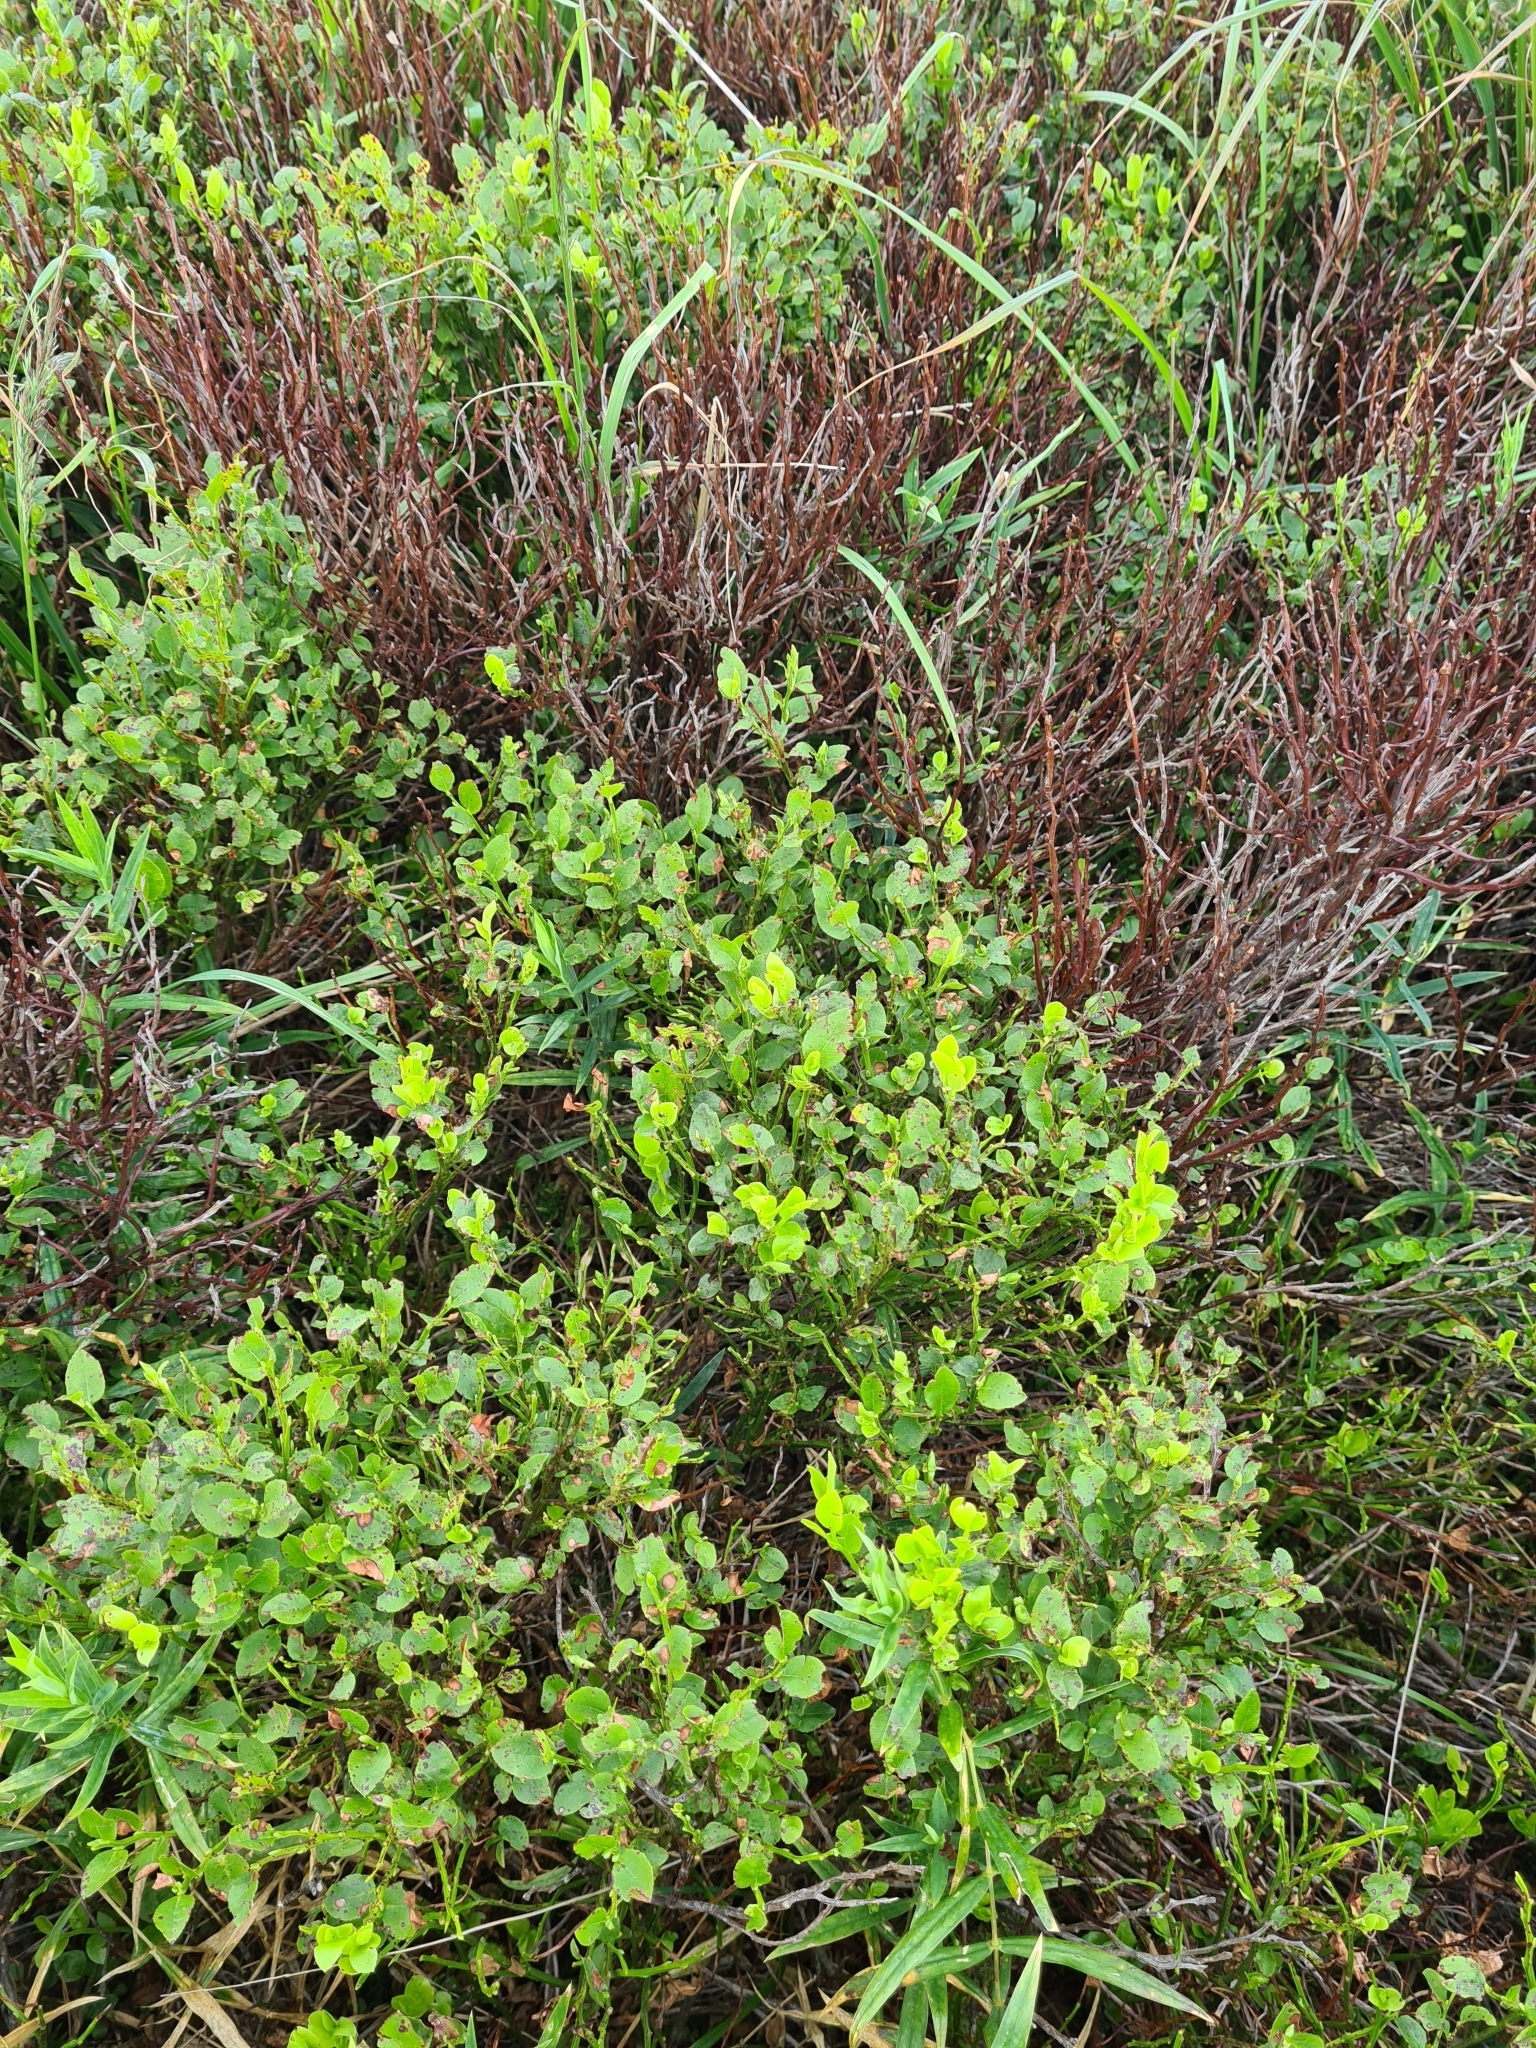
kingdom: Plantae
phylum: Tracheophyta
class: Magnoliopsida
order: Ericales
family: Ericaceae
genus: Vaccinium
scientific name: Vaccinium myrtillus
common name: Bilberry
